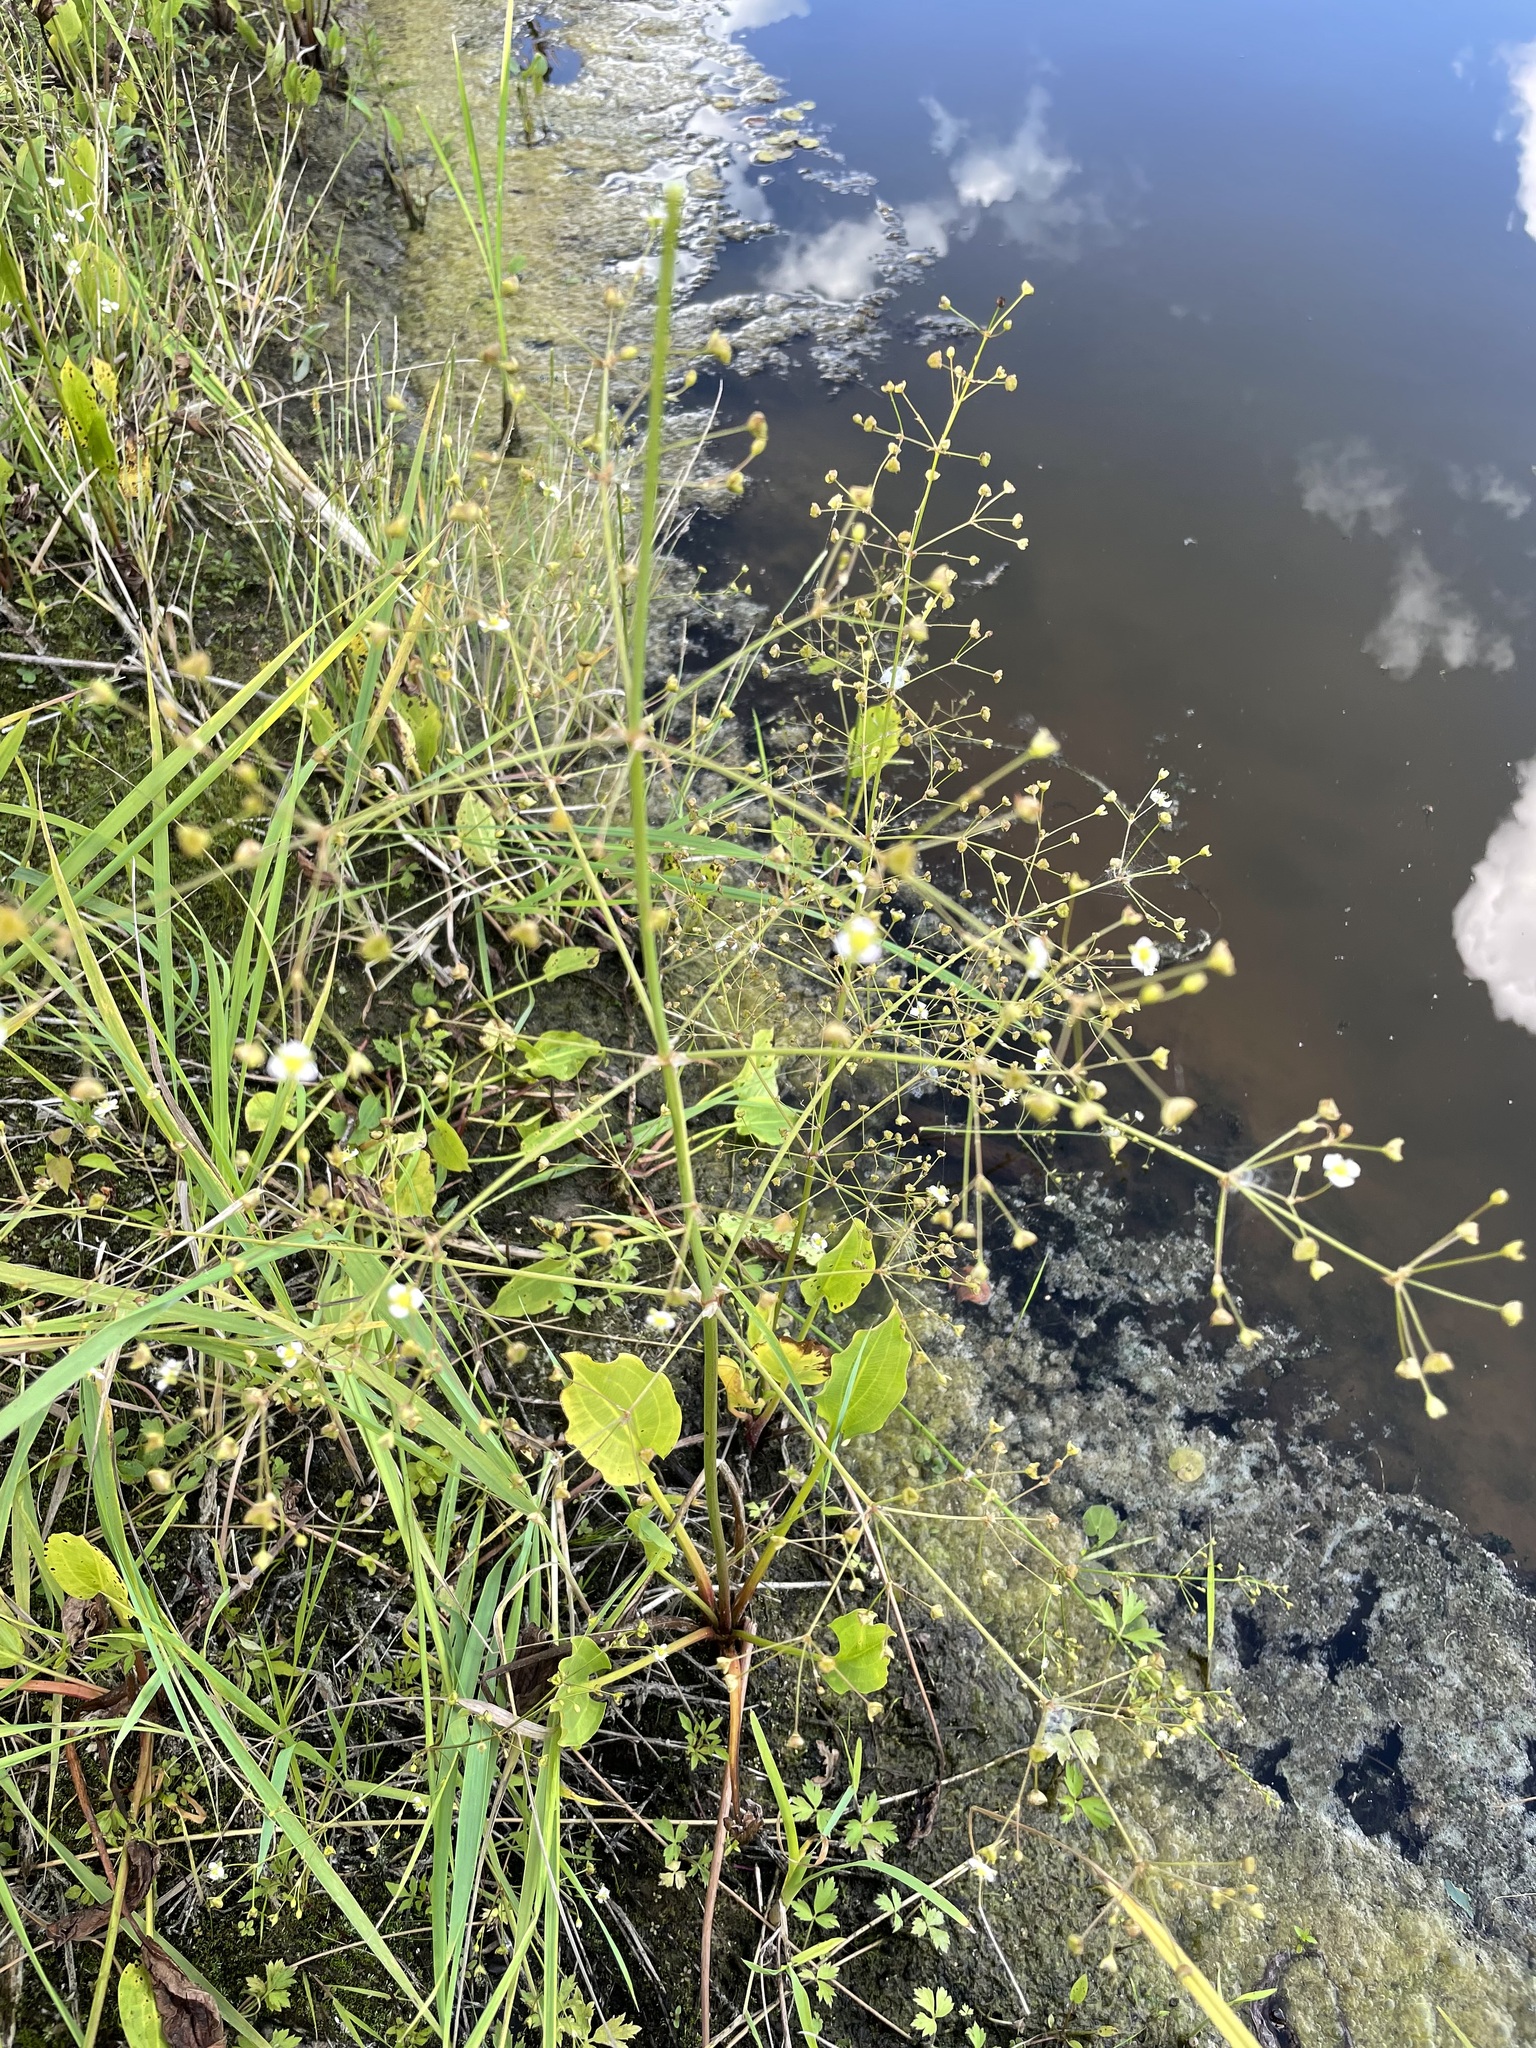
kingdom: Plantae
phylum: Tracheophyta
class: Liliopsida
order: Alismatales
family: Alismataceae
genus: Alisma
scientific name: Alisma plantago-aquatica
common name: Water-plantain
